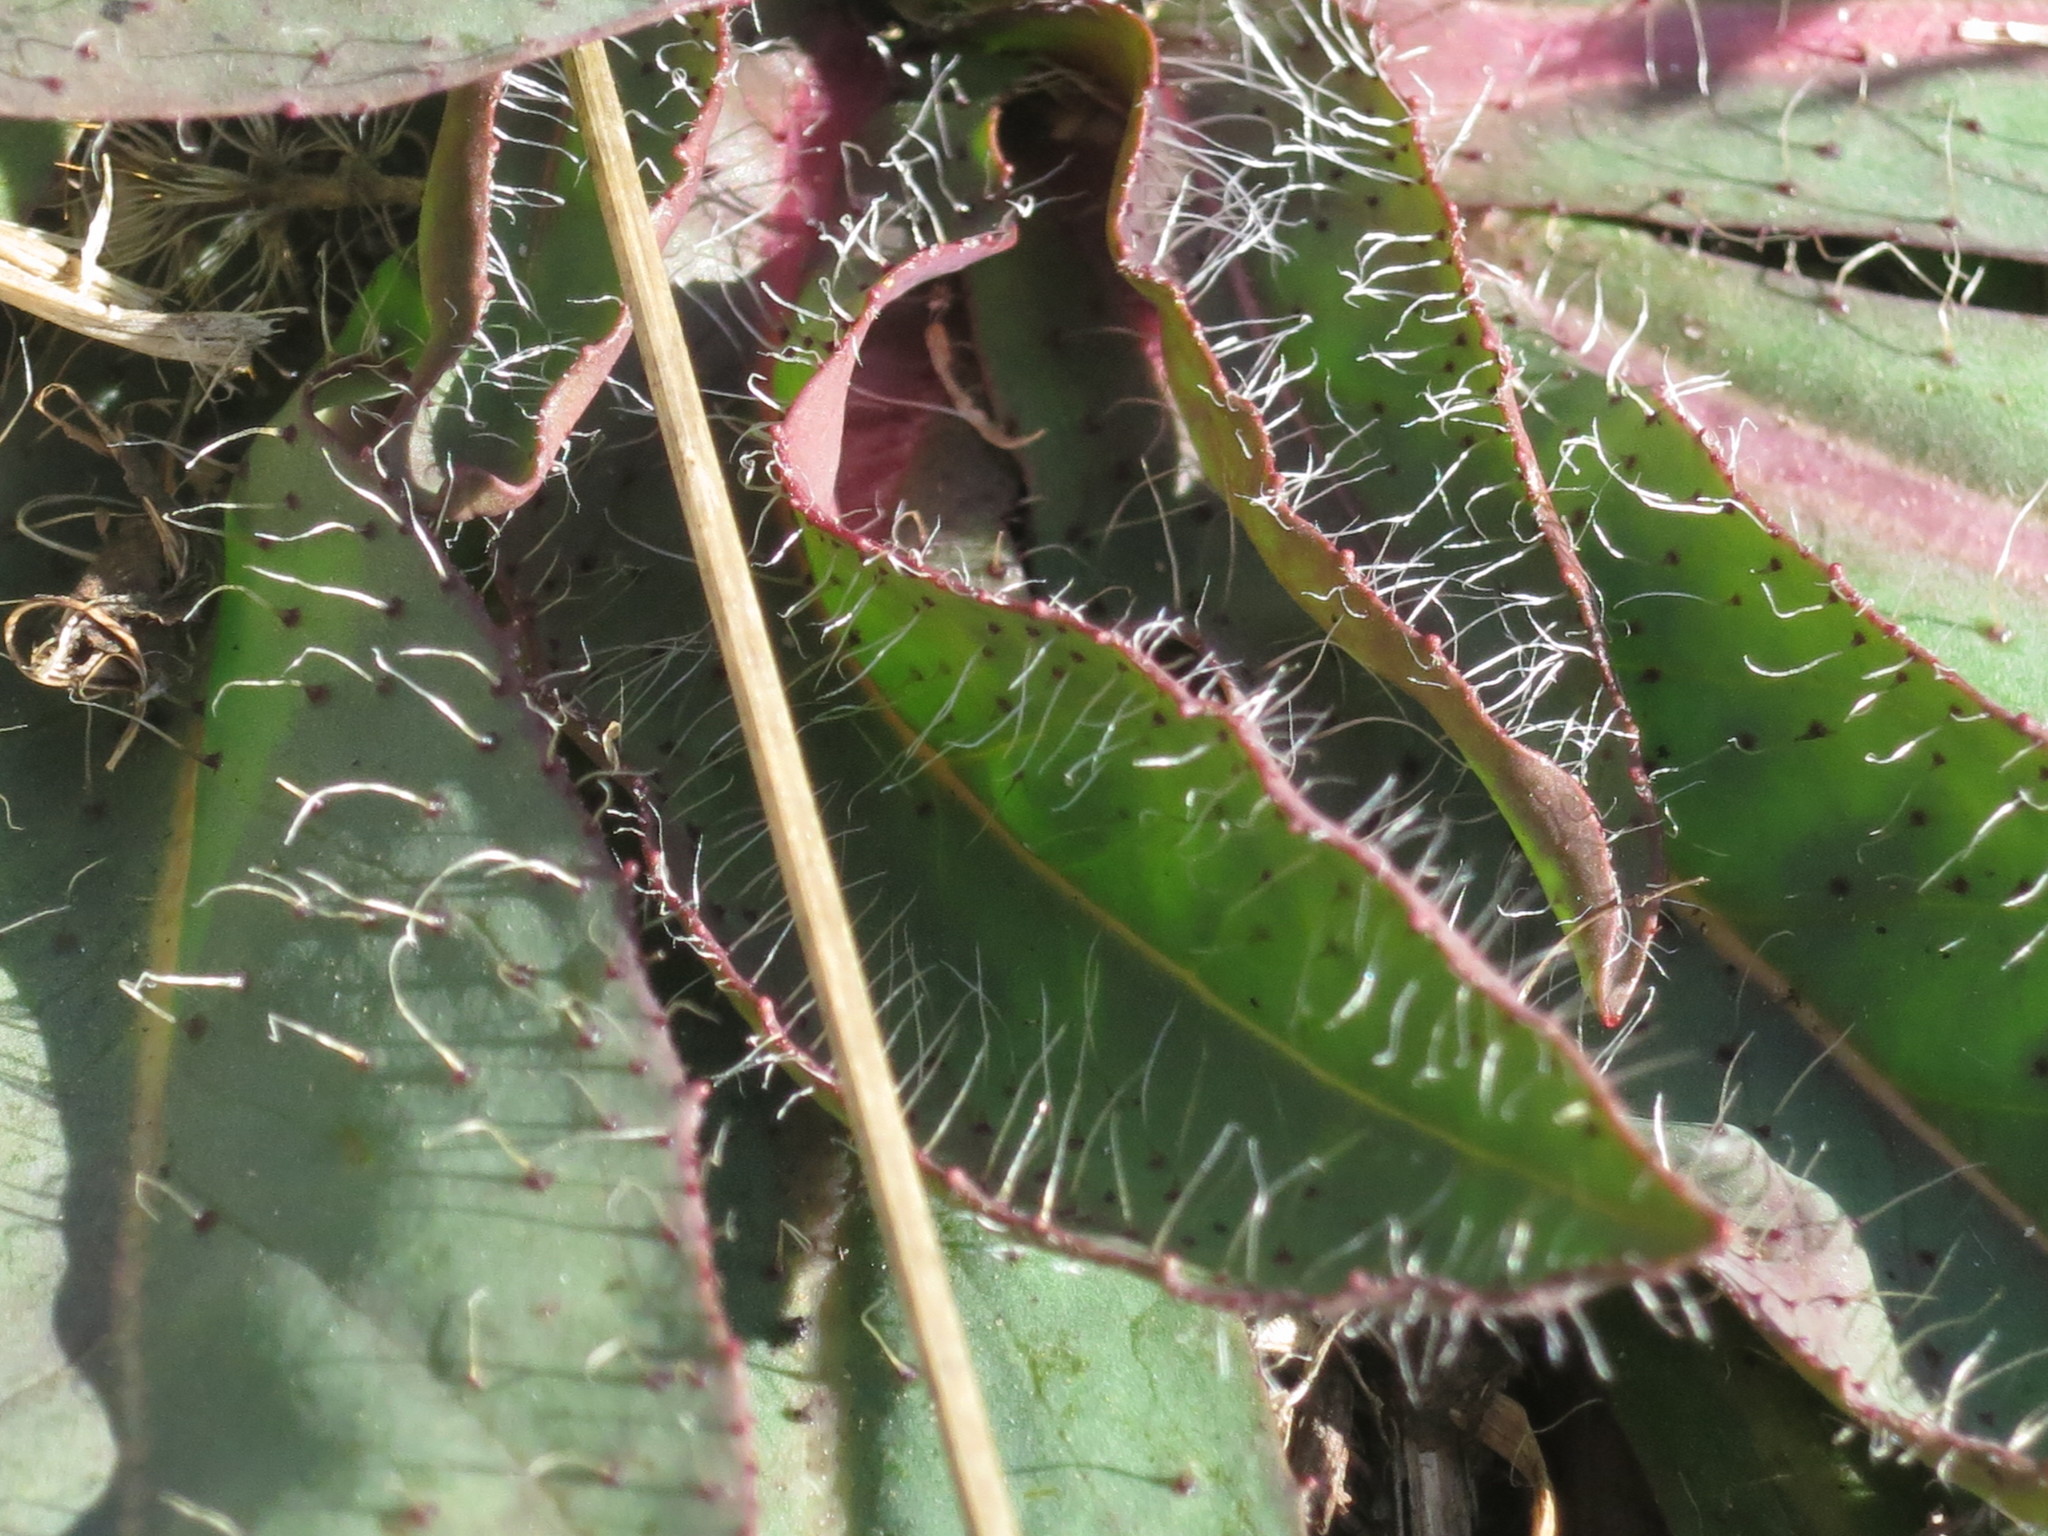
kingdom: Plantae
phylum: Tracheophyta
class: Magnoliopsida
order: Asterales
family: Asteraceae
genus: Pilosella
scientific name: Pilosella floribunda
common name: Glaucous hawkweed
